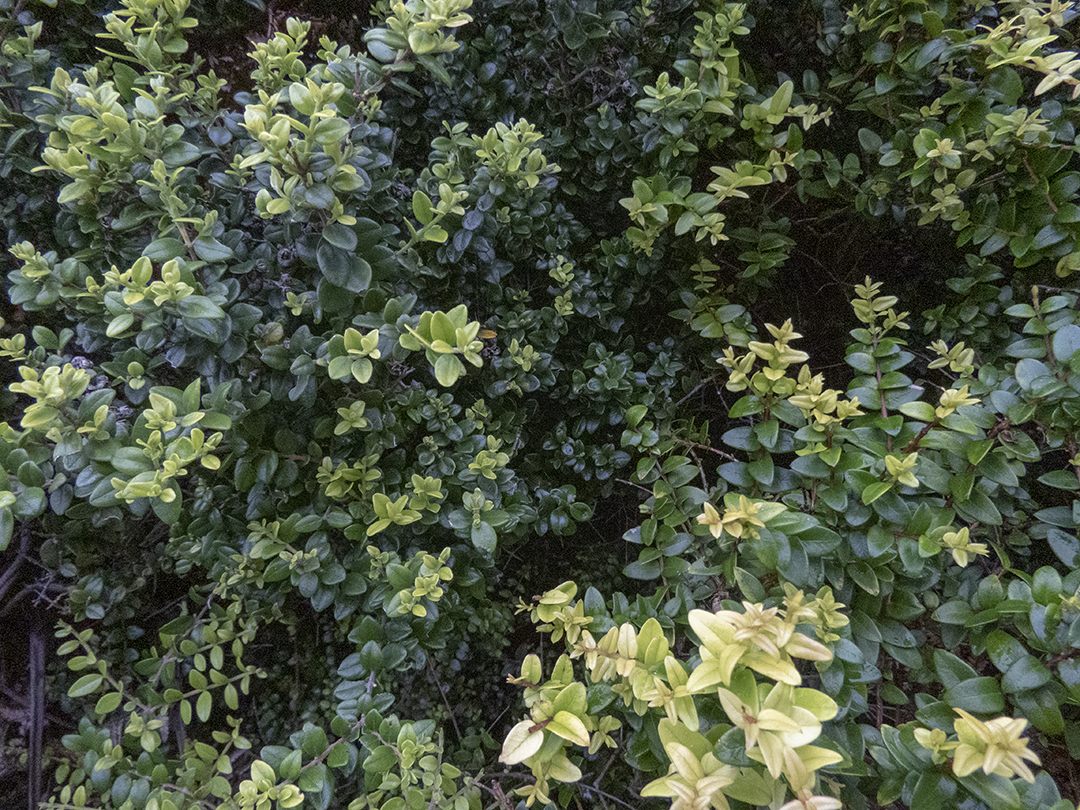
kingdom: Plantae
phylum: Tracheophyta
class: Magnoliopsida
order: Myrtales
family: Myrtaceae
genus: Metrosideros
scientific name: Metrosideros perforata
